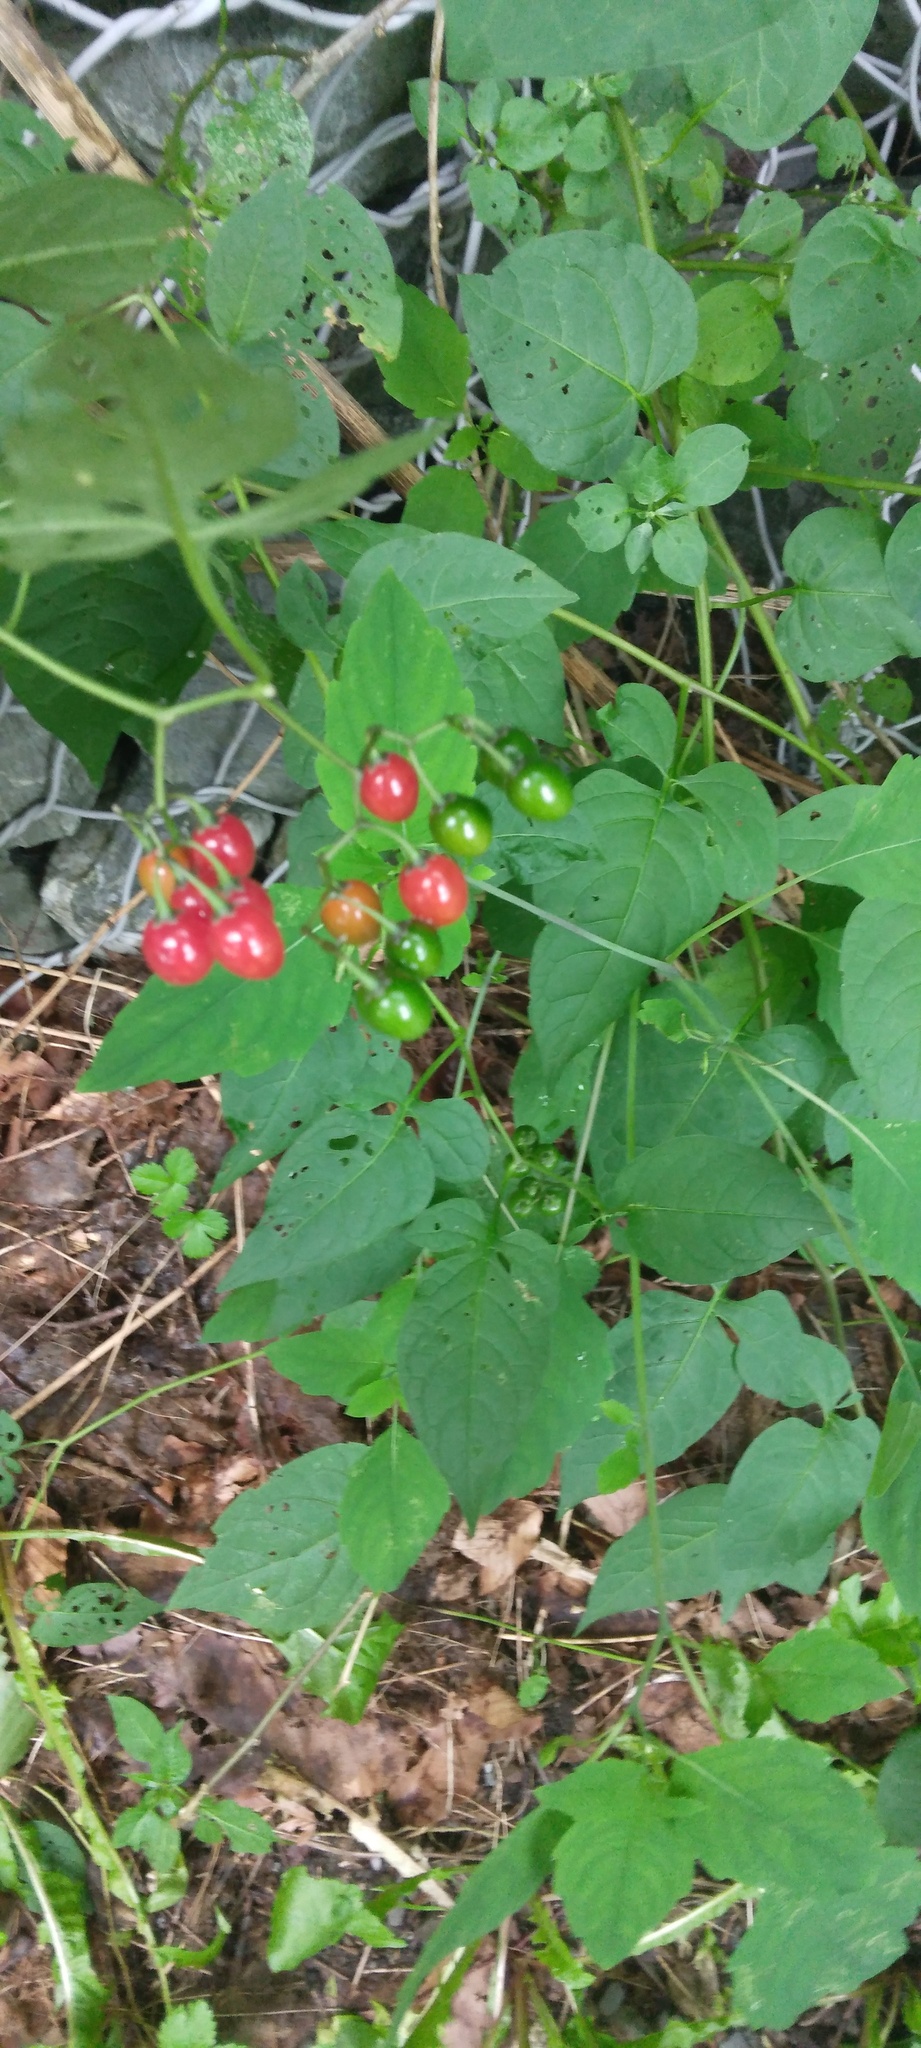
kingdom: Plantae
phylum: Tracheophyta
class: Magnoliopsida
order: Solanales
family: Solanaceae
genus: Solanum
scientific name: Solanum dulcamara
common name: Climbing nightshade
